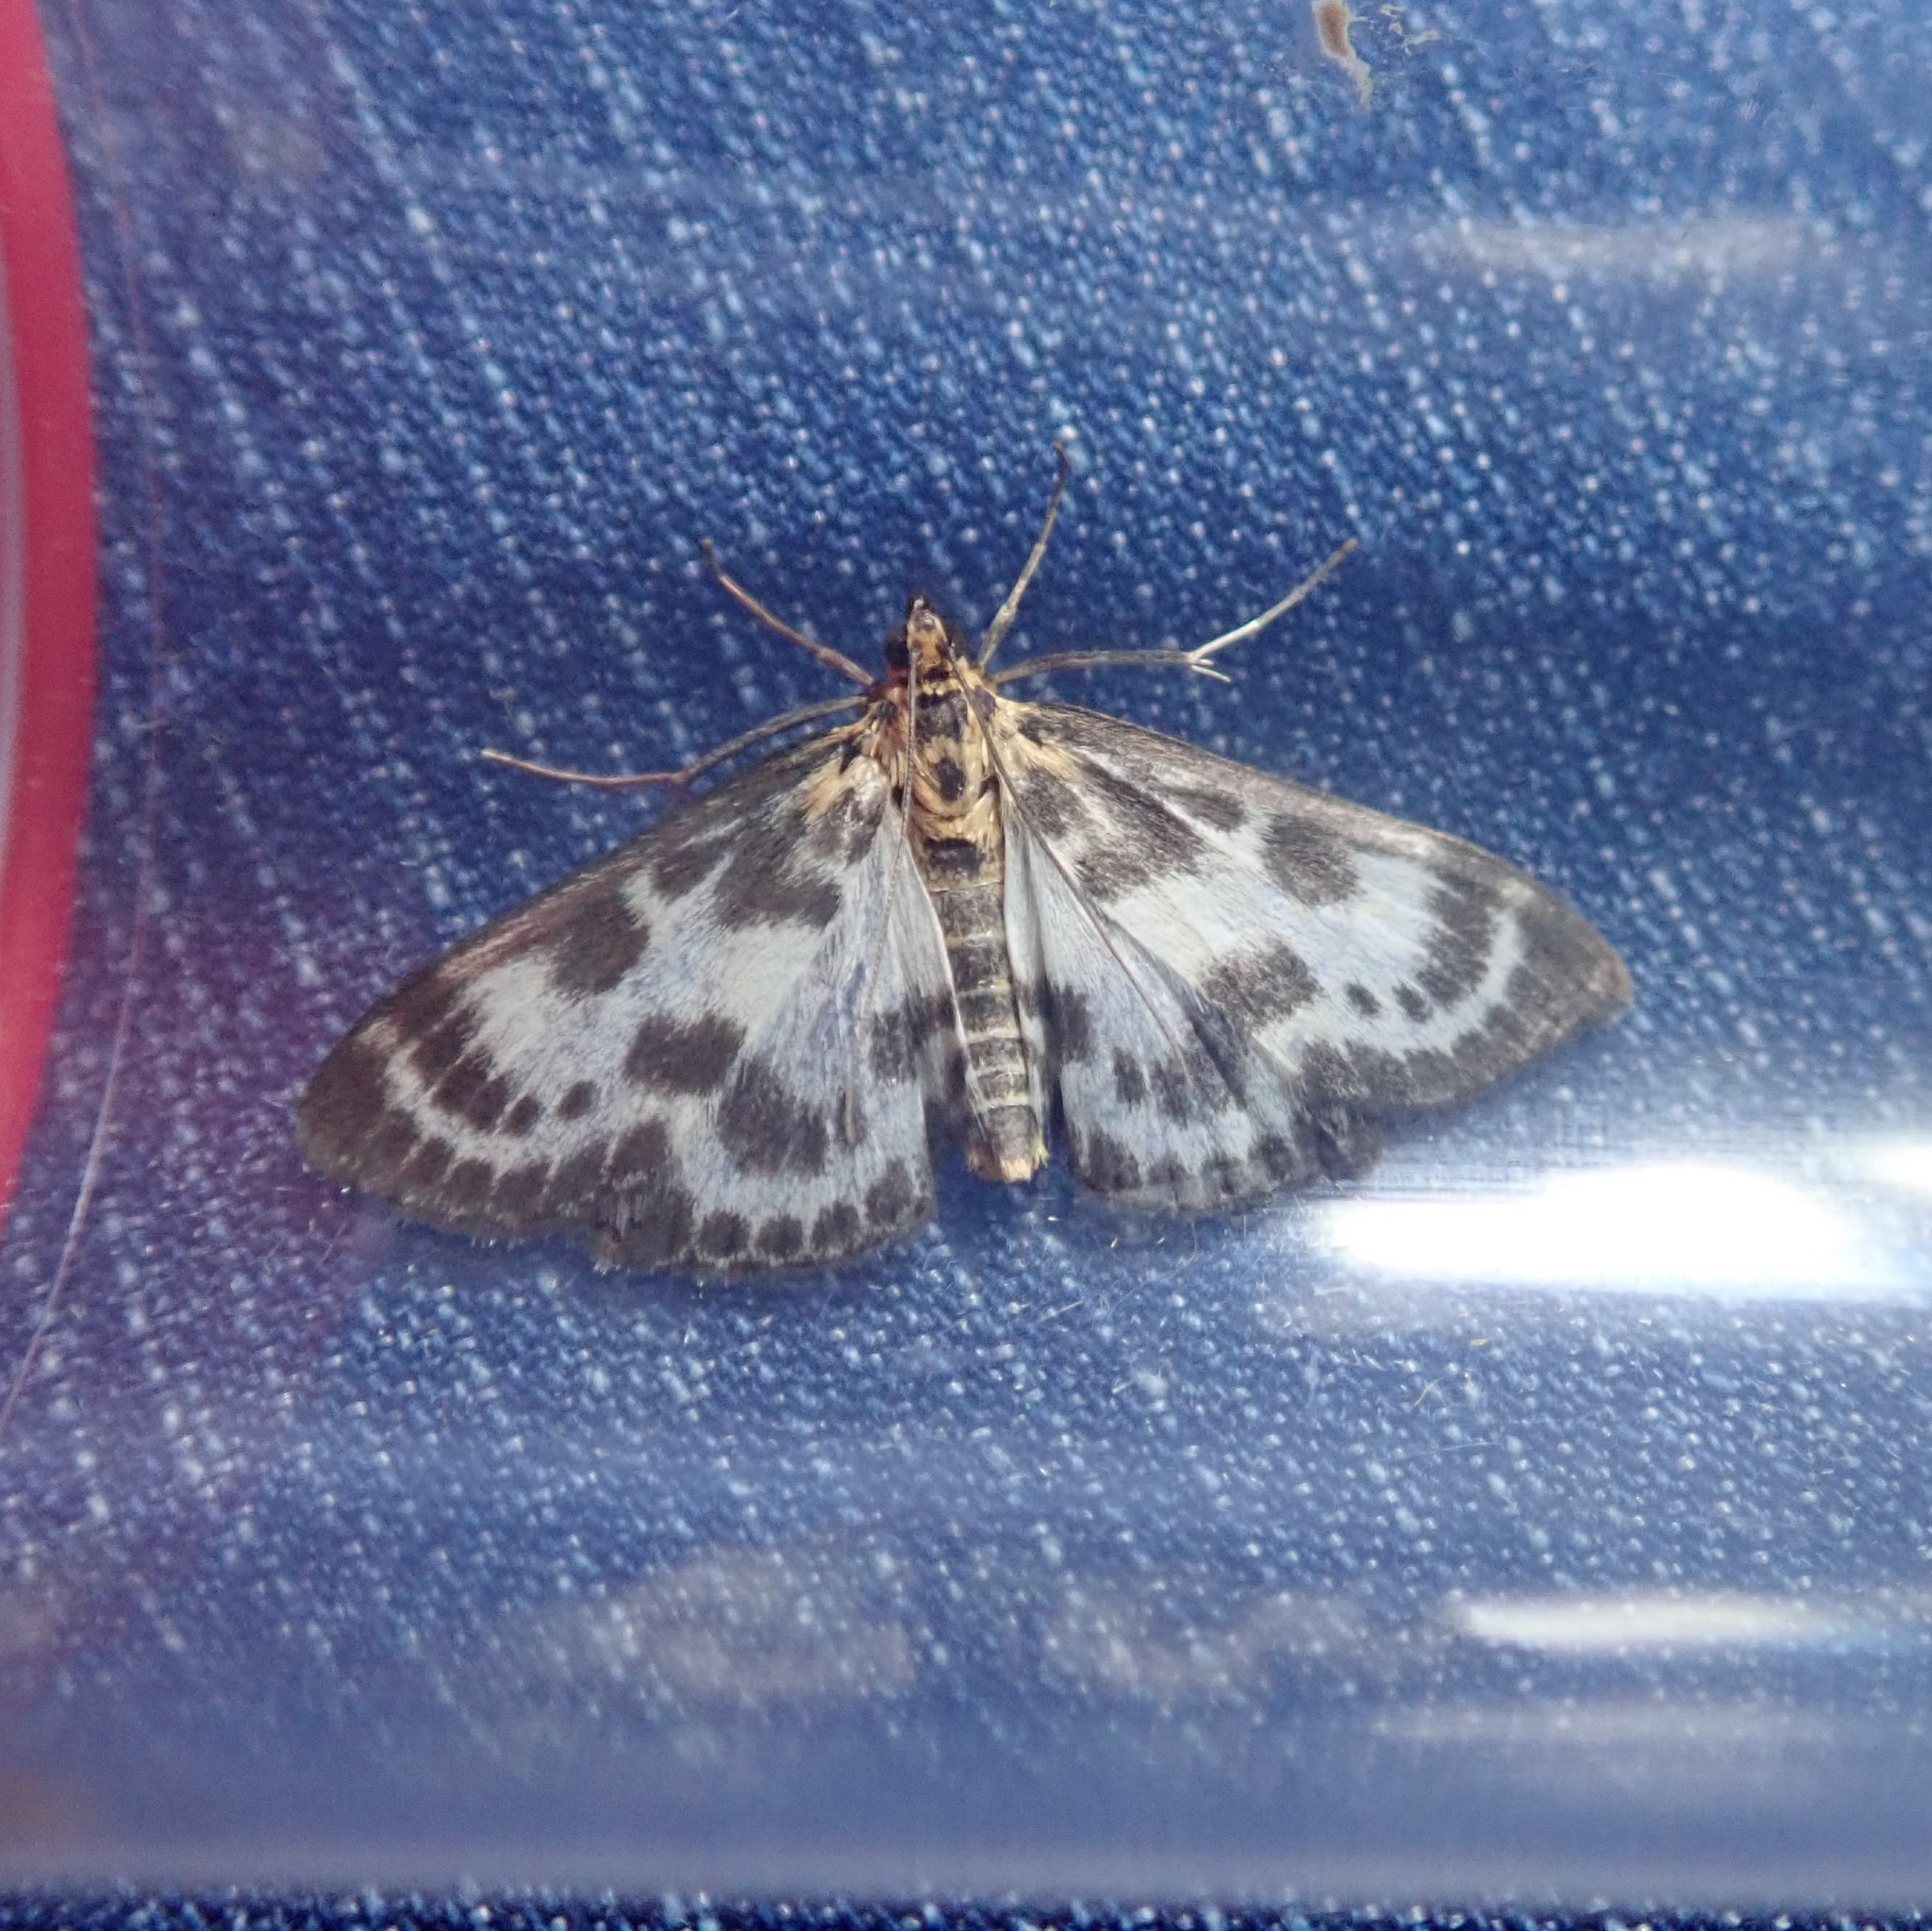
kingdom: Animalia
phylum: Arthropoda
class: Insecta
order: Lepidoptera
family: Crambidae
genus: Anania
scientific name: Anania hortulata
